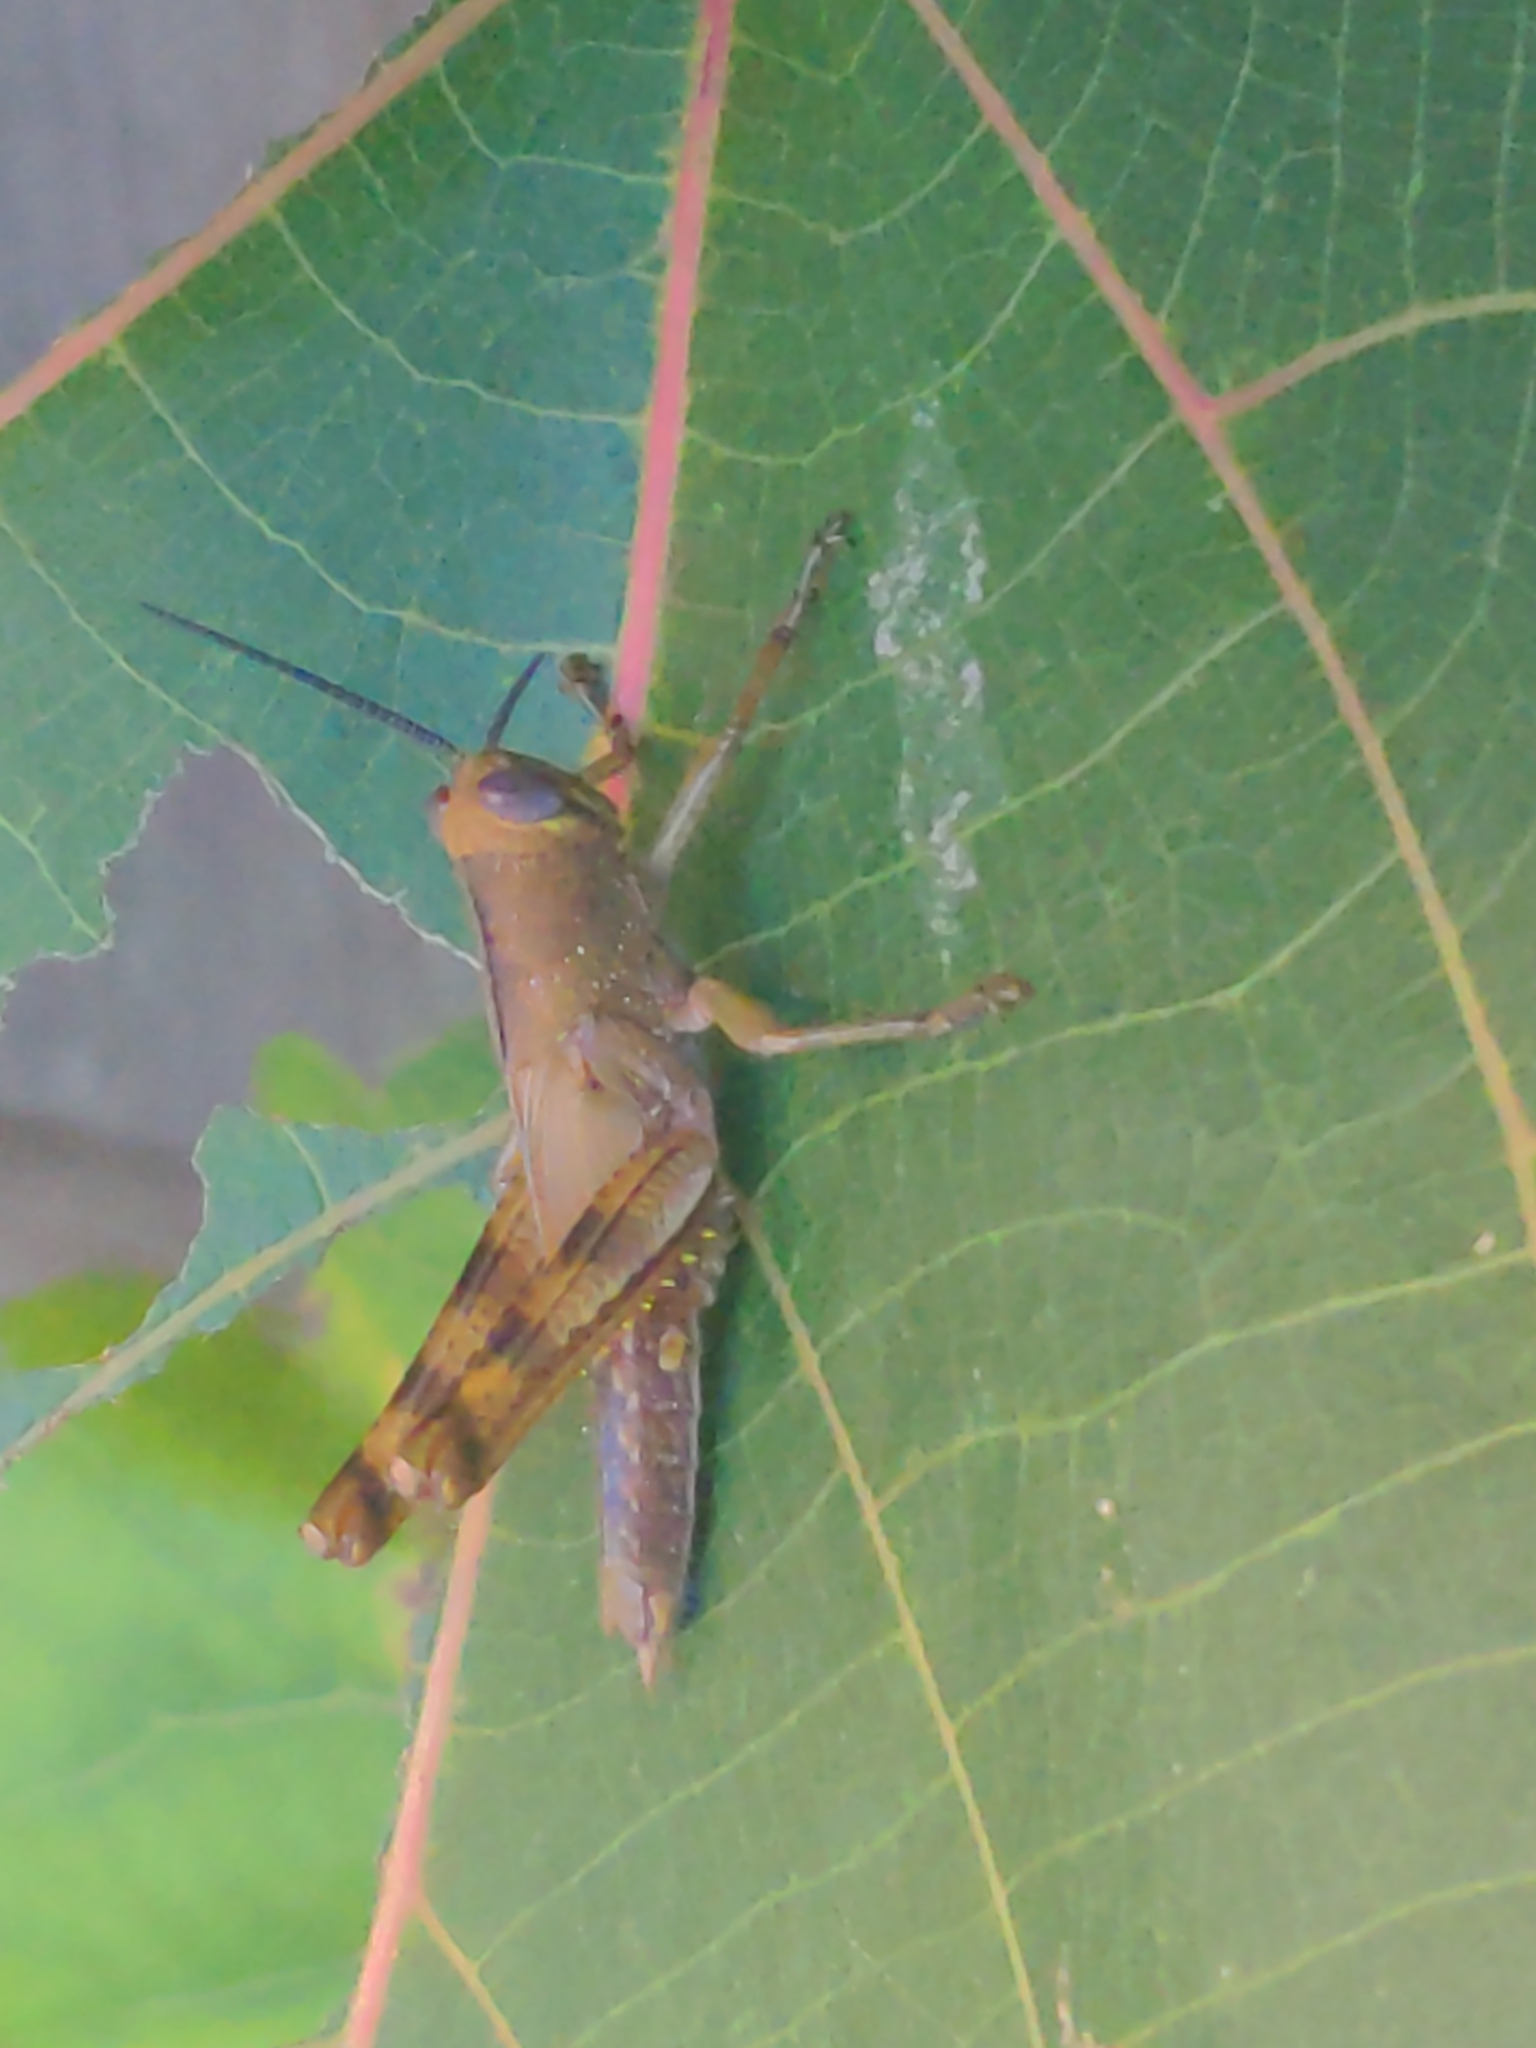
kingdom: Animalia
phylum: Arthropoda
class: Insecta
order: Orthoptera
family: Acrididae
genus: Valanga
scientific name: Valanga irregularis
